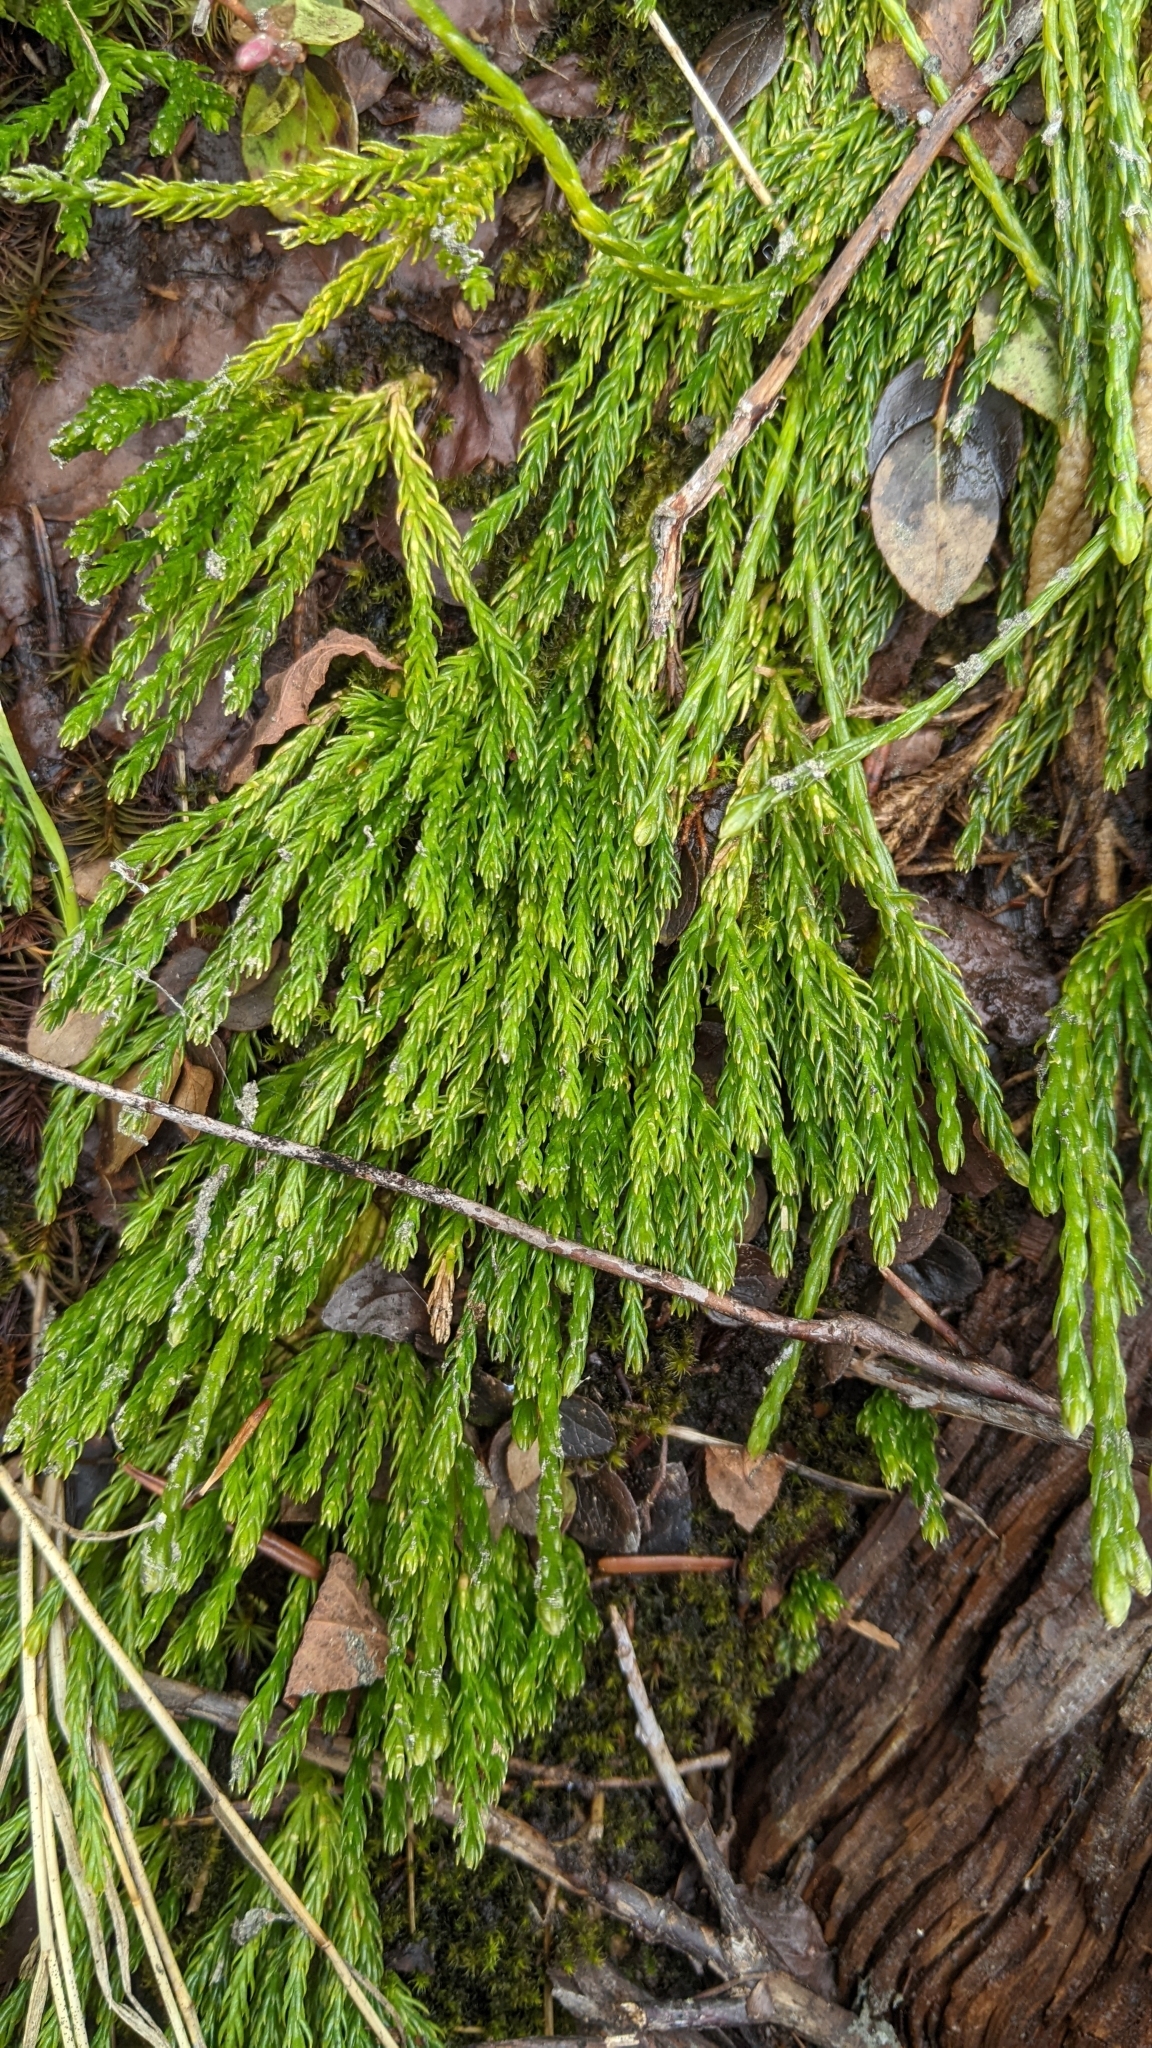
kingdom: Plantae
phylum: Tracheophyta
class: Lycopodiopsida
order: Lycopodiales
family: Lycopodiaceae
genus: Diphasiastrum
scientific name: Diphasiastrum sitchense
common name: Alaska clubmoss
